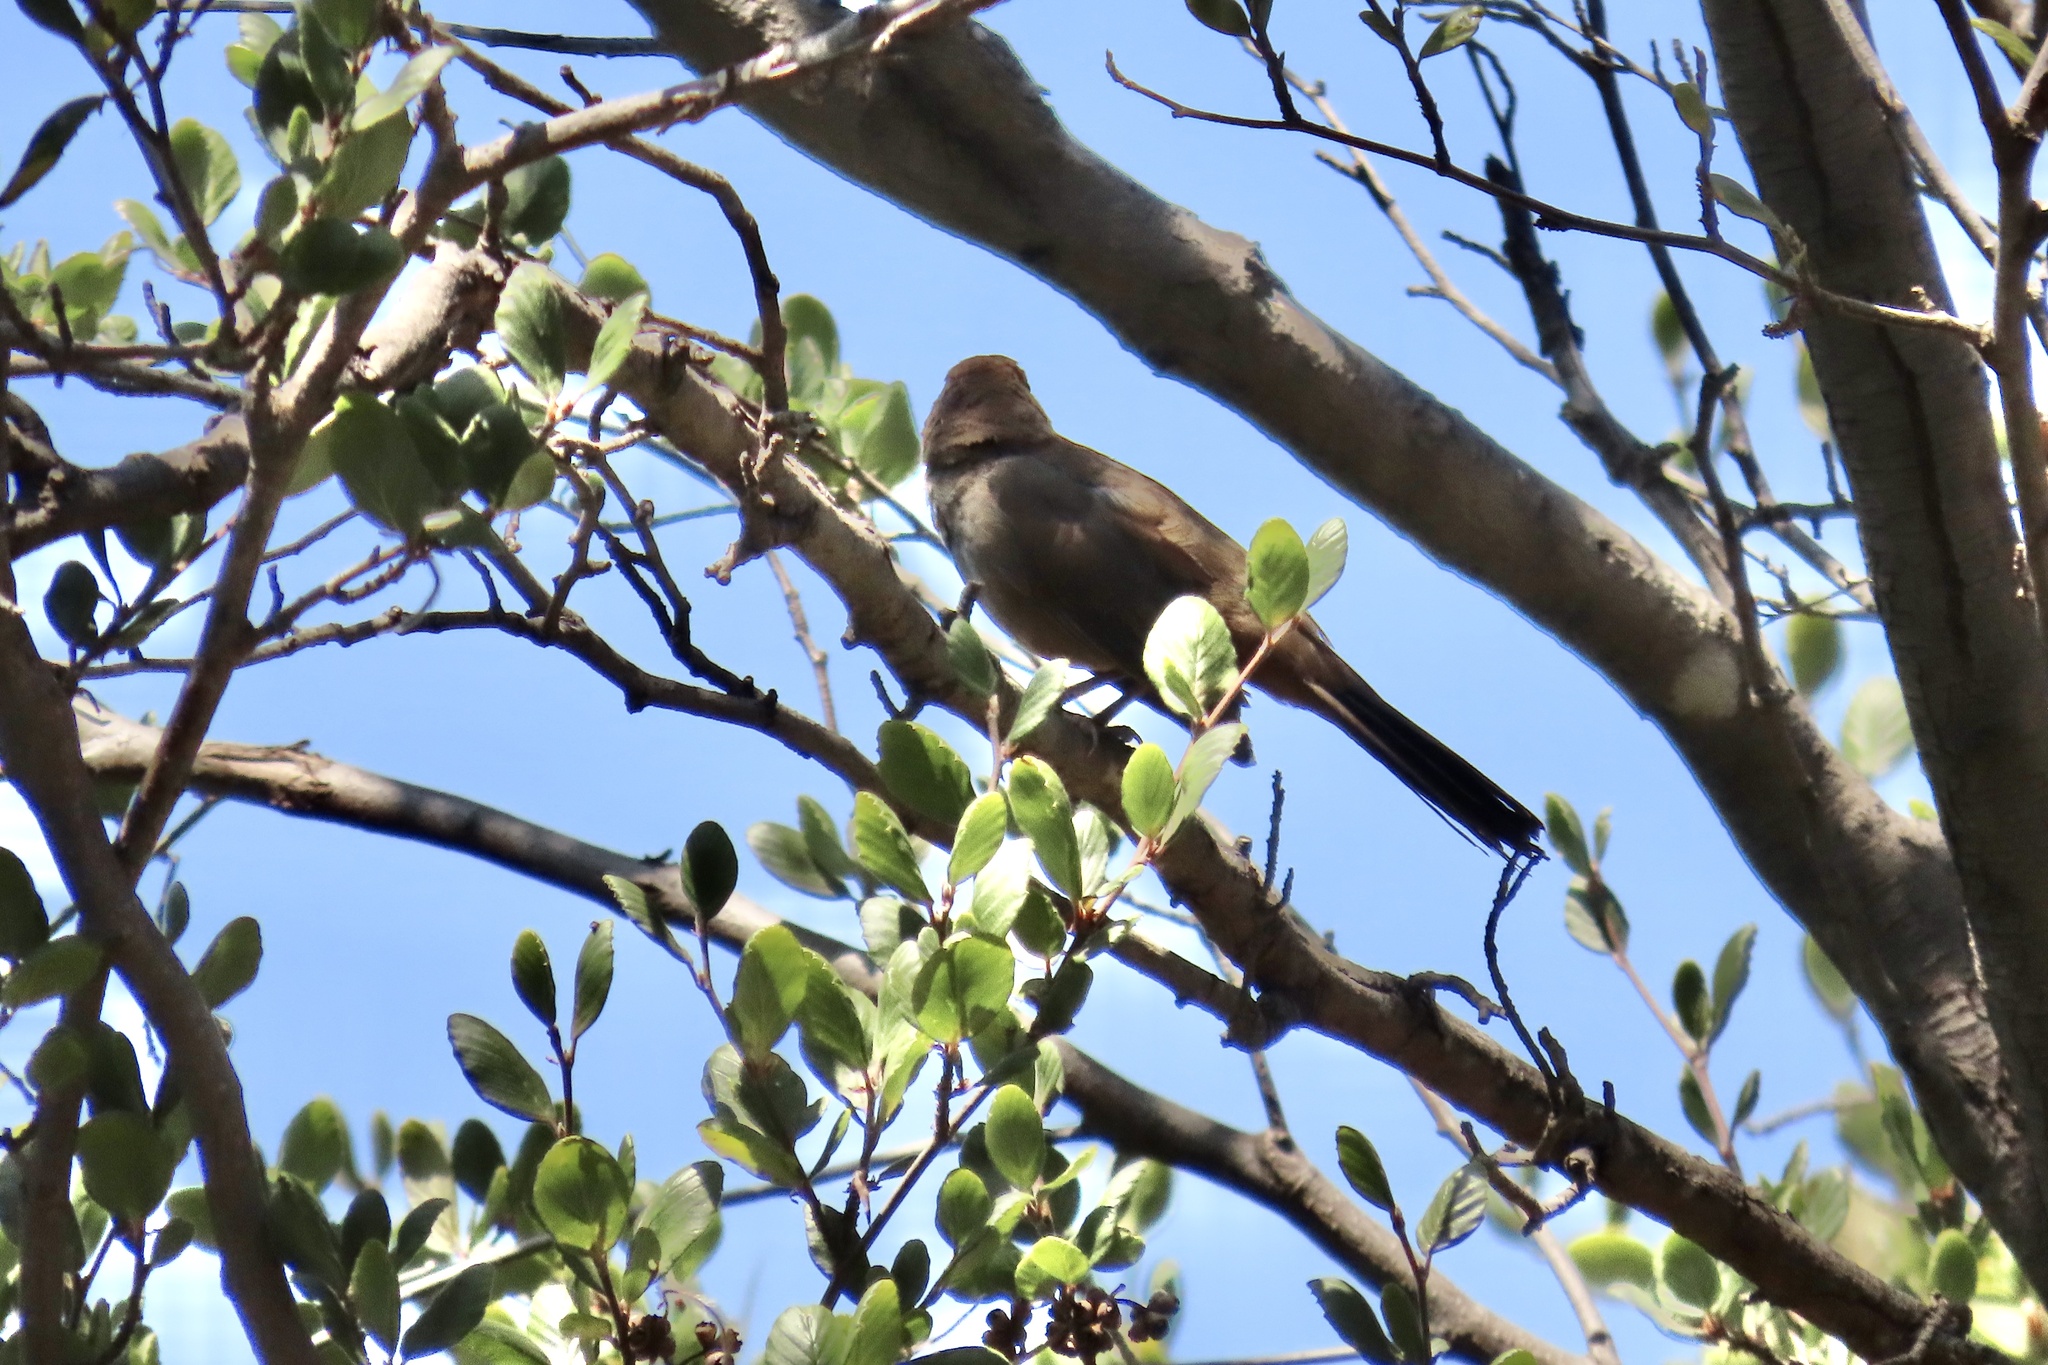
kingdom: Animalia
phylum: Chordata
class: Aves
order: Passeriformes
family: Passerellidae
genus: Melozone
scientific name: Melozone crissalis
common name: California towhee
